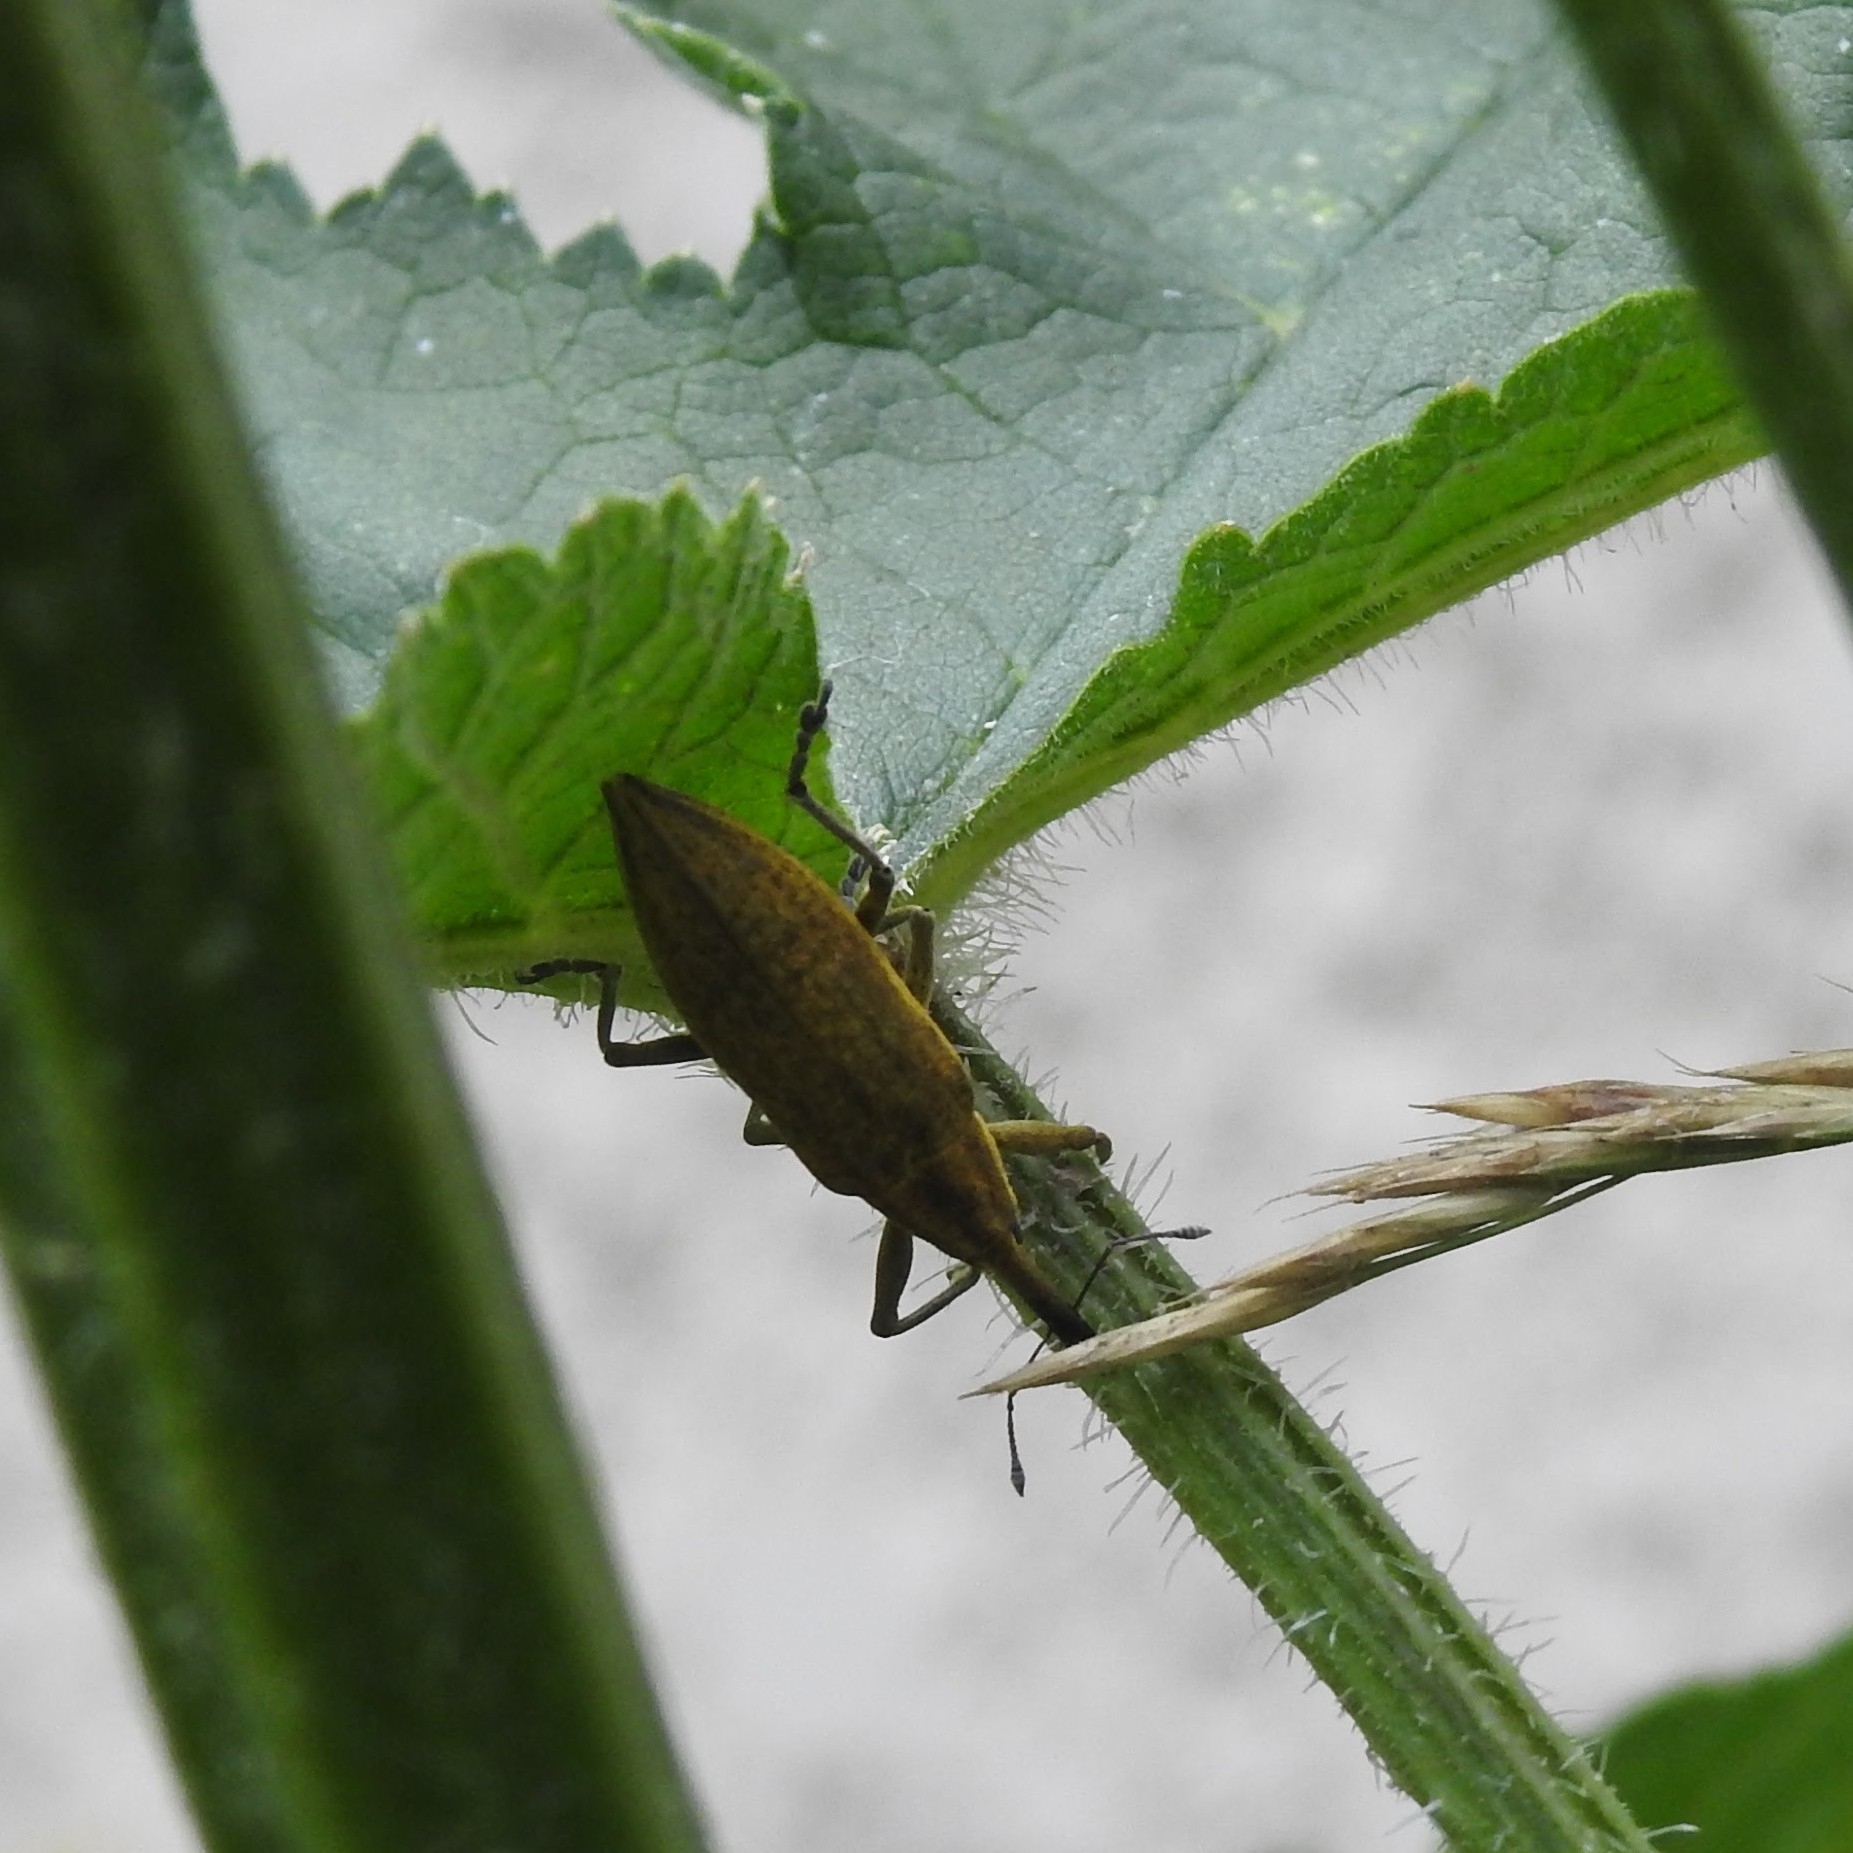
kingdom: Animalia
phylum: Arthropoda
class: Insecta
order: Coleoptera
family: Curculionidae
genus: Lixus
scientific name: Lixus iridis
